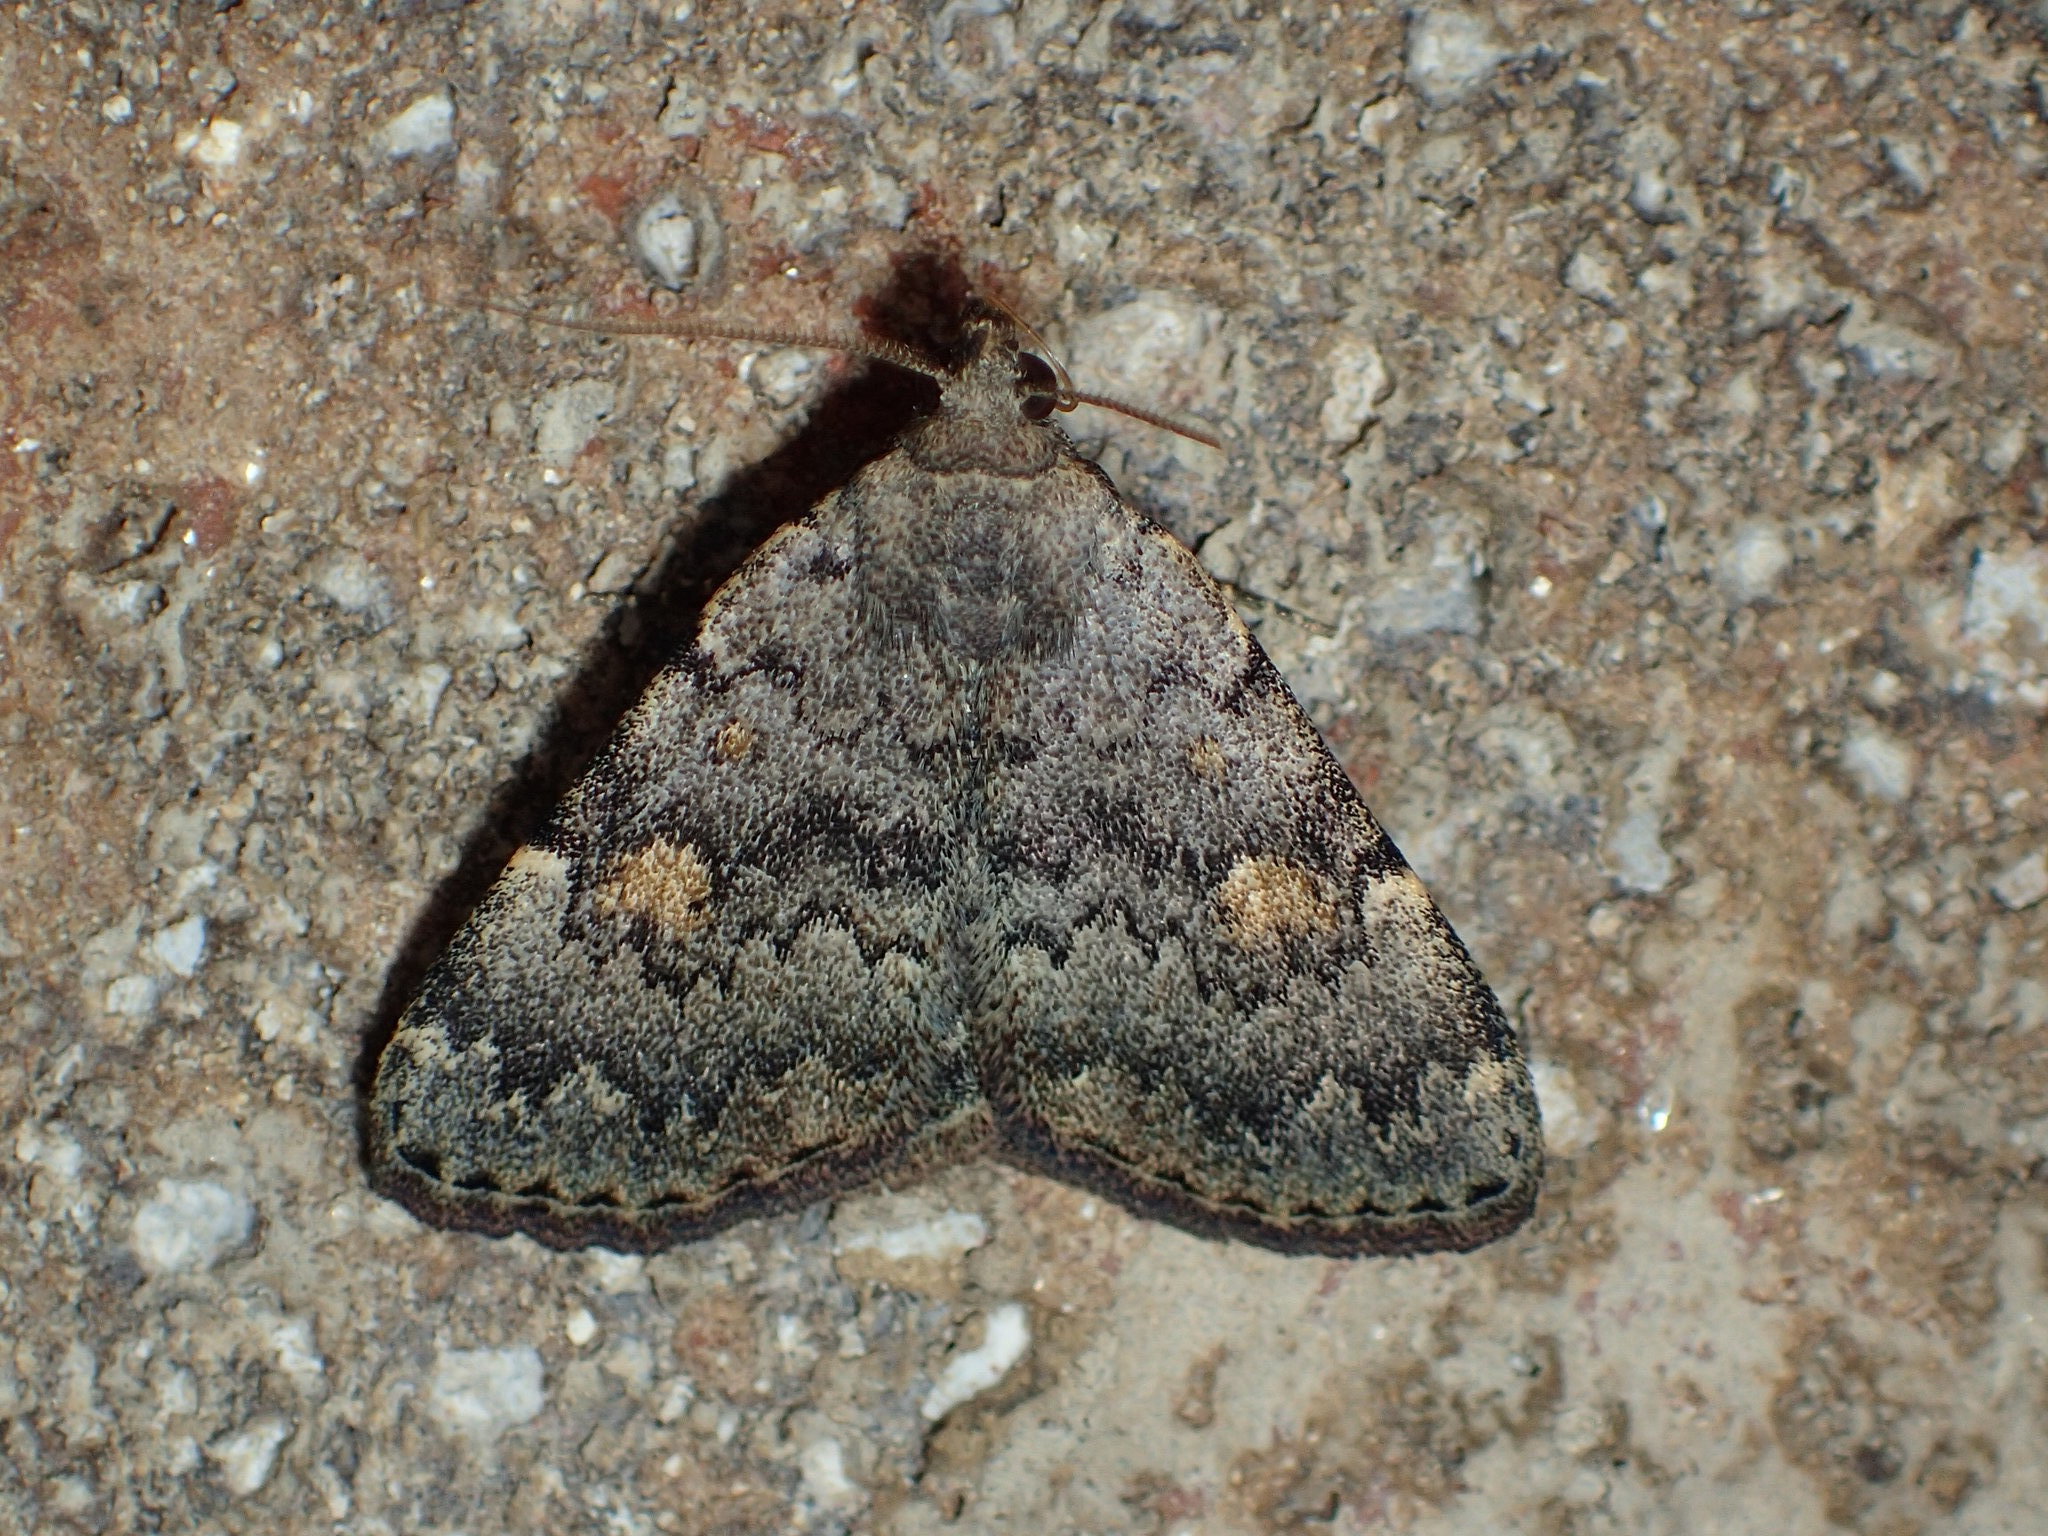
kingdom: Animalia
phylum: Arthropoda
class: Insecta
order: Lepidoptera
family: Erebidae
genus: Idia
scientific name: Idia aemula
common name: Common idia moth
